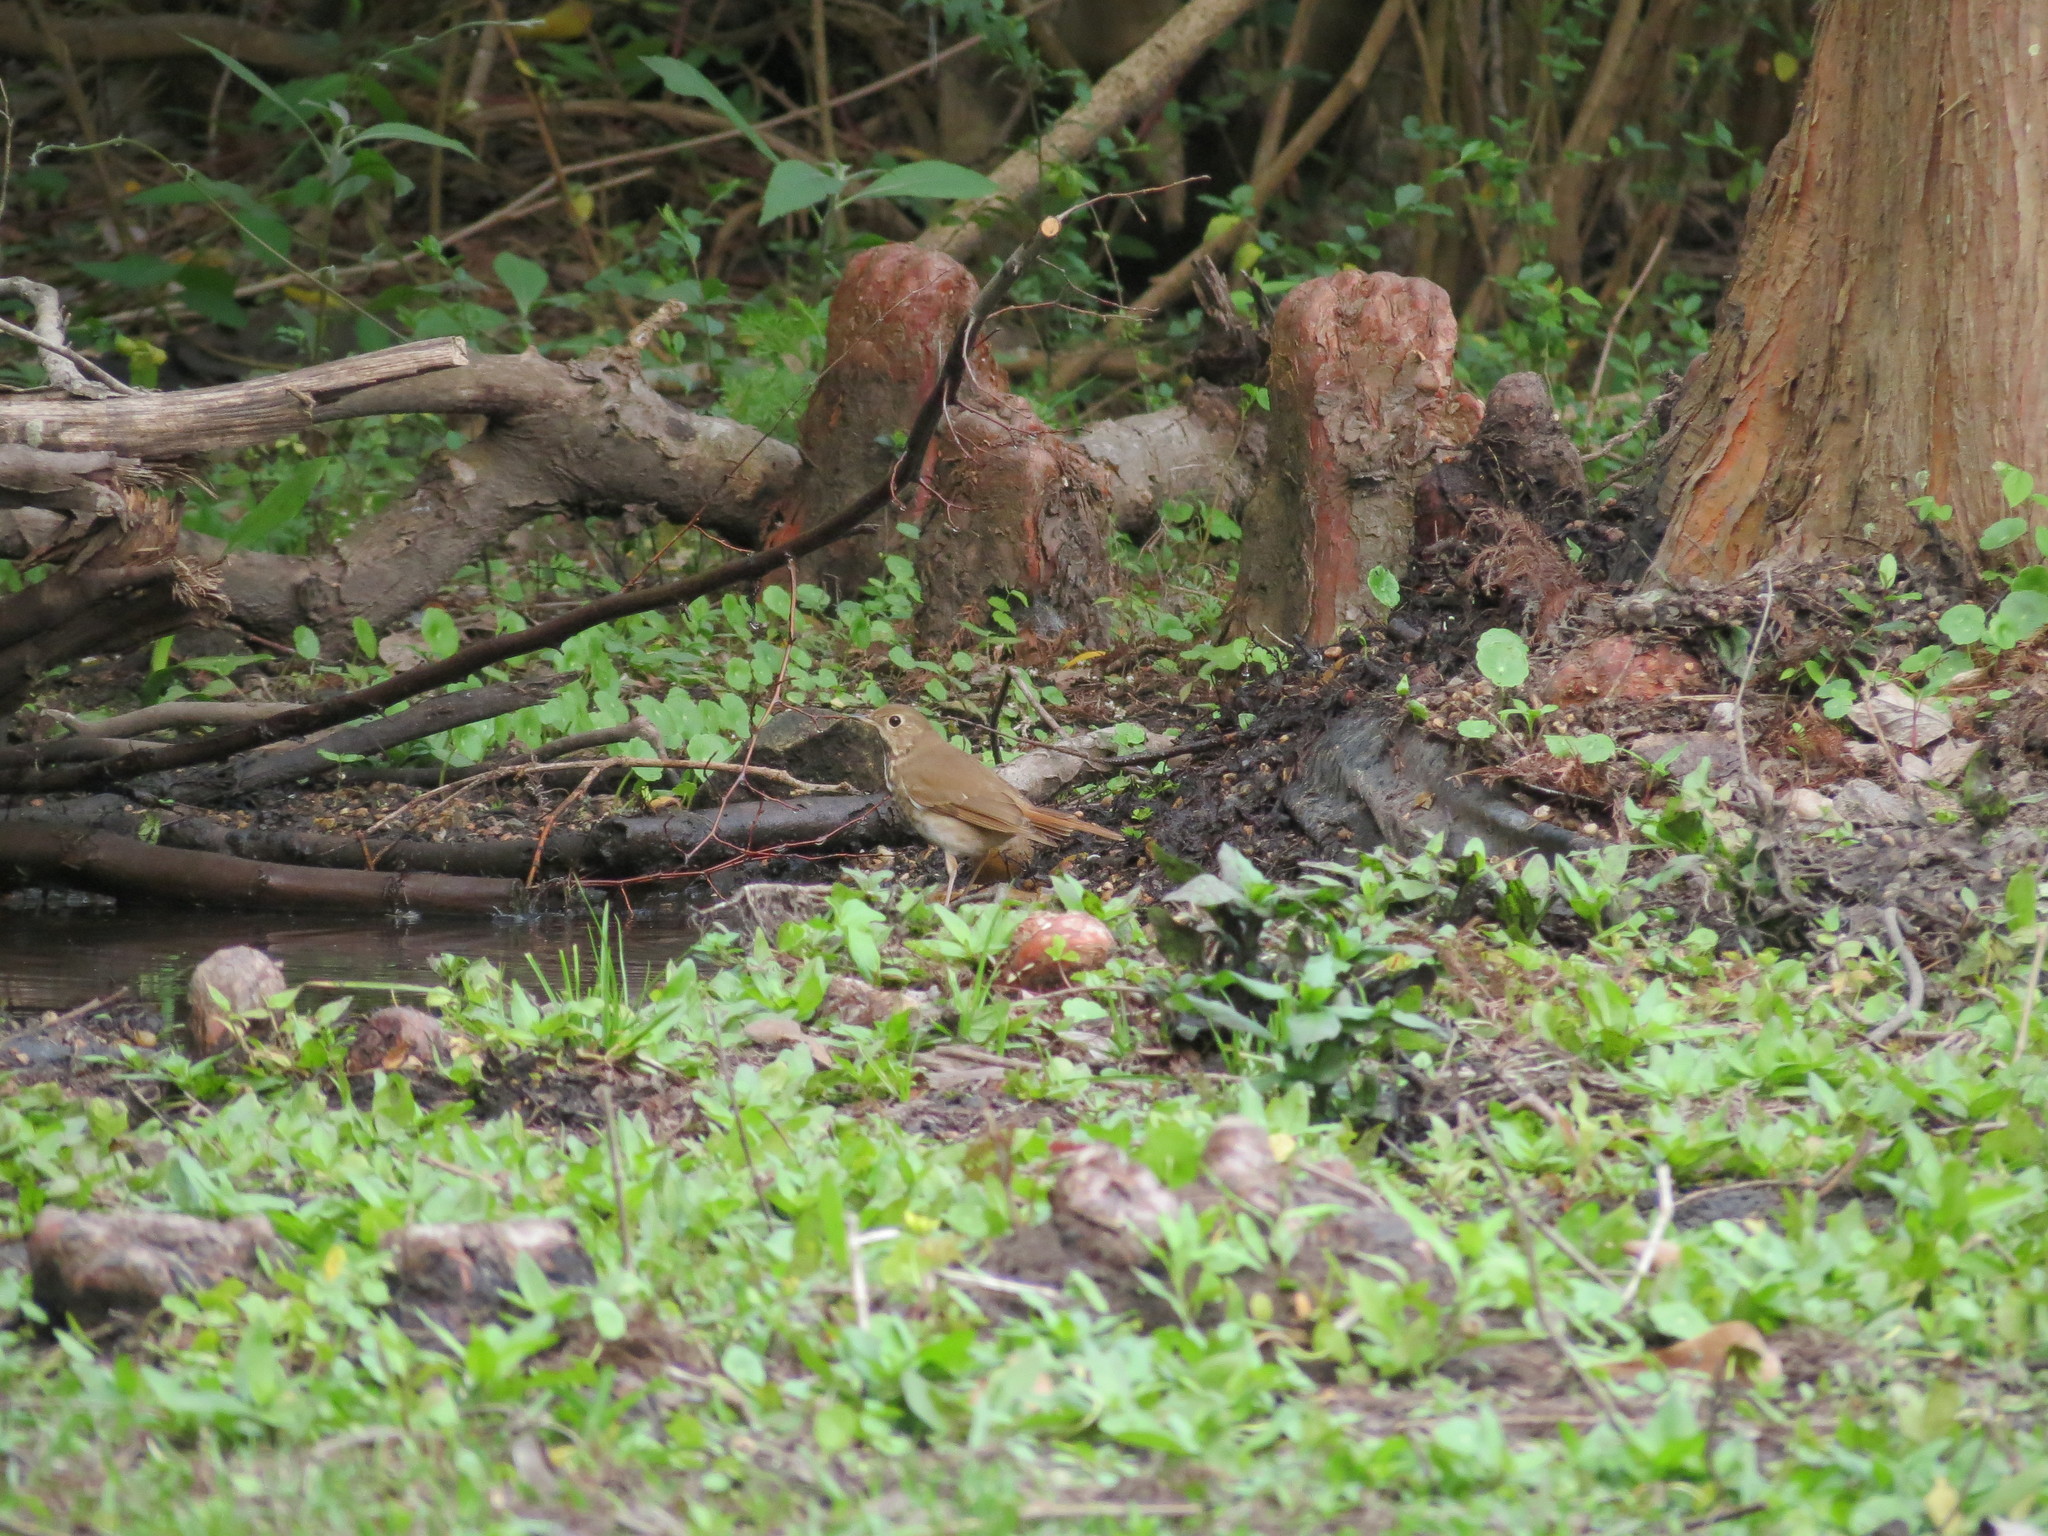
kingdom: Animalia
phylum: Chordata
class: Aves
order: Passeriformes
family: Turdidae
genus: Catharus
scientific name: Catharus guttatus
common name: Hermit thrush
